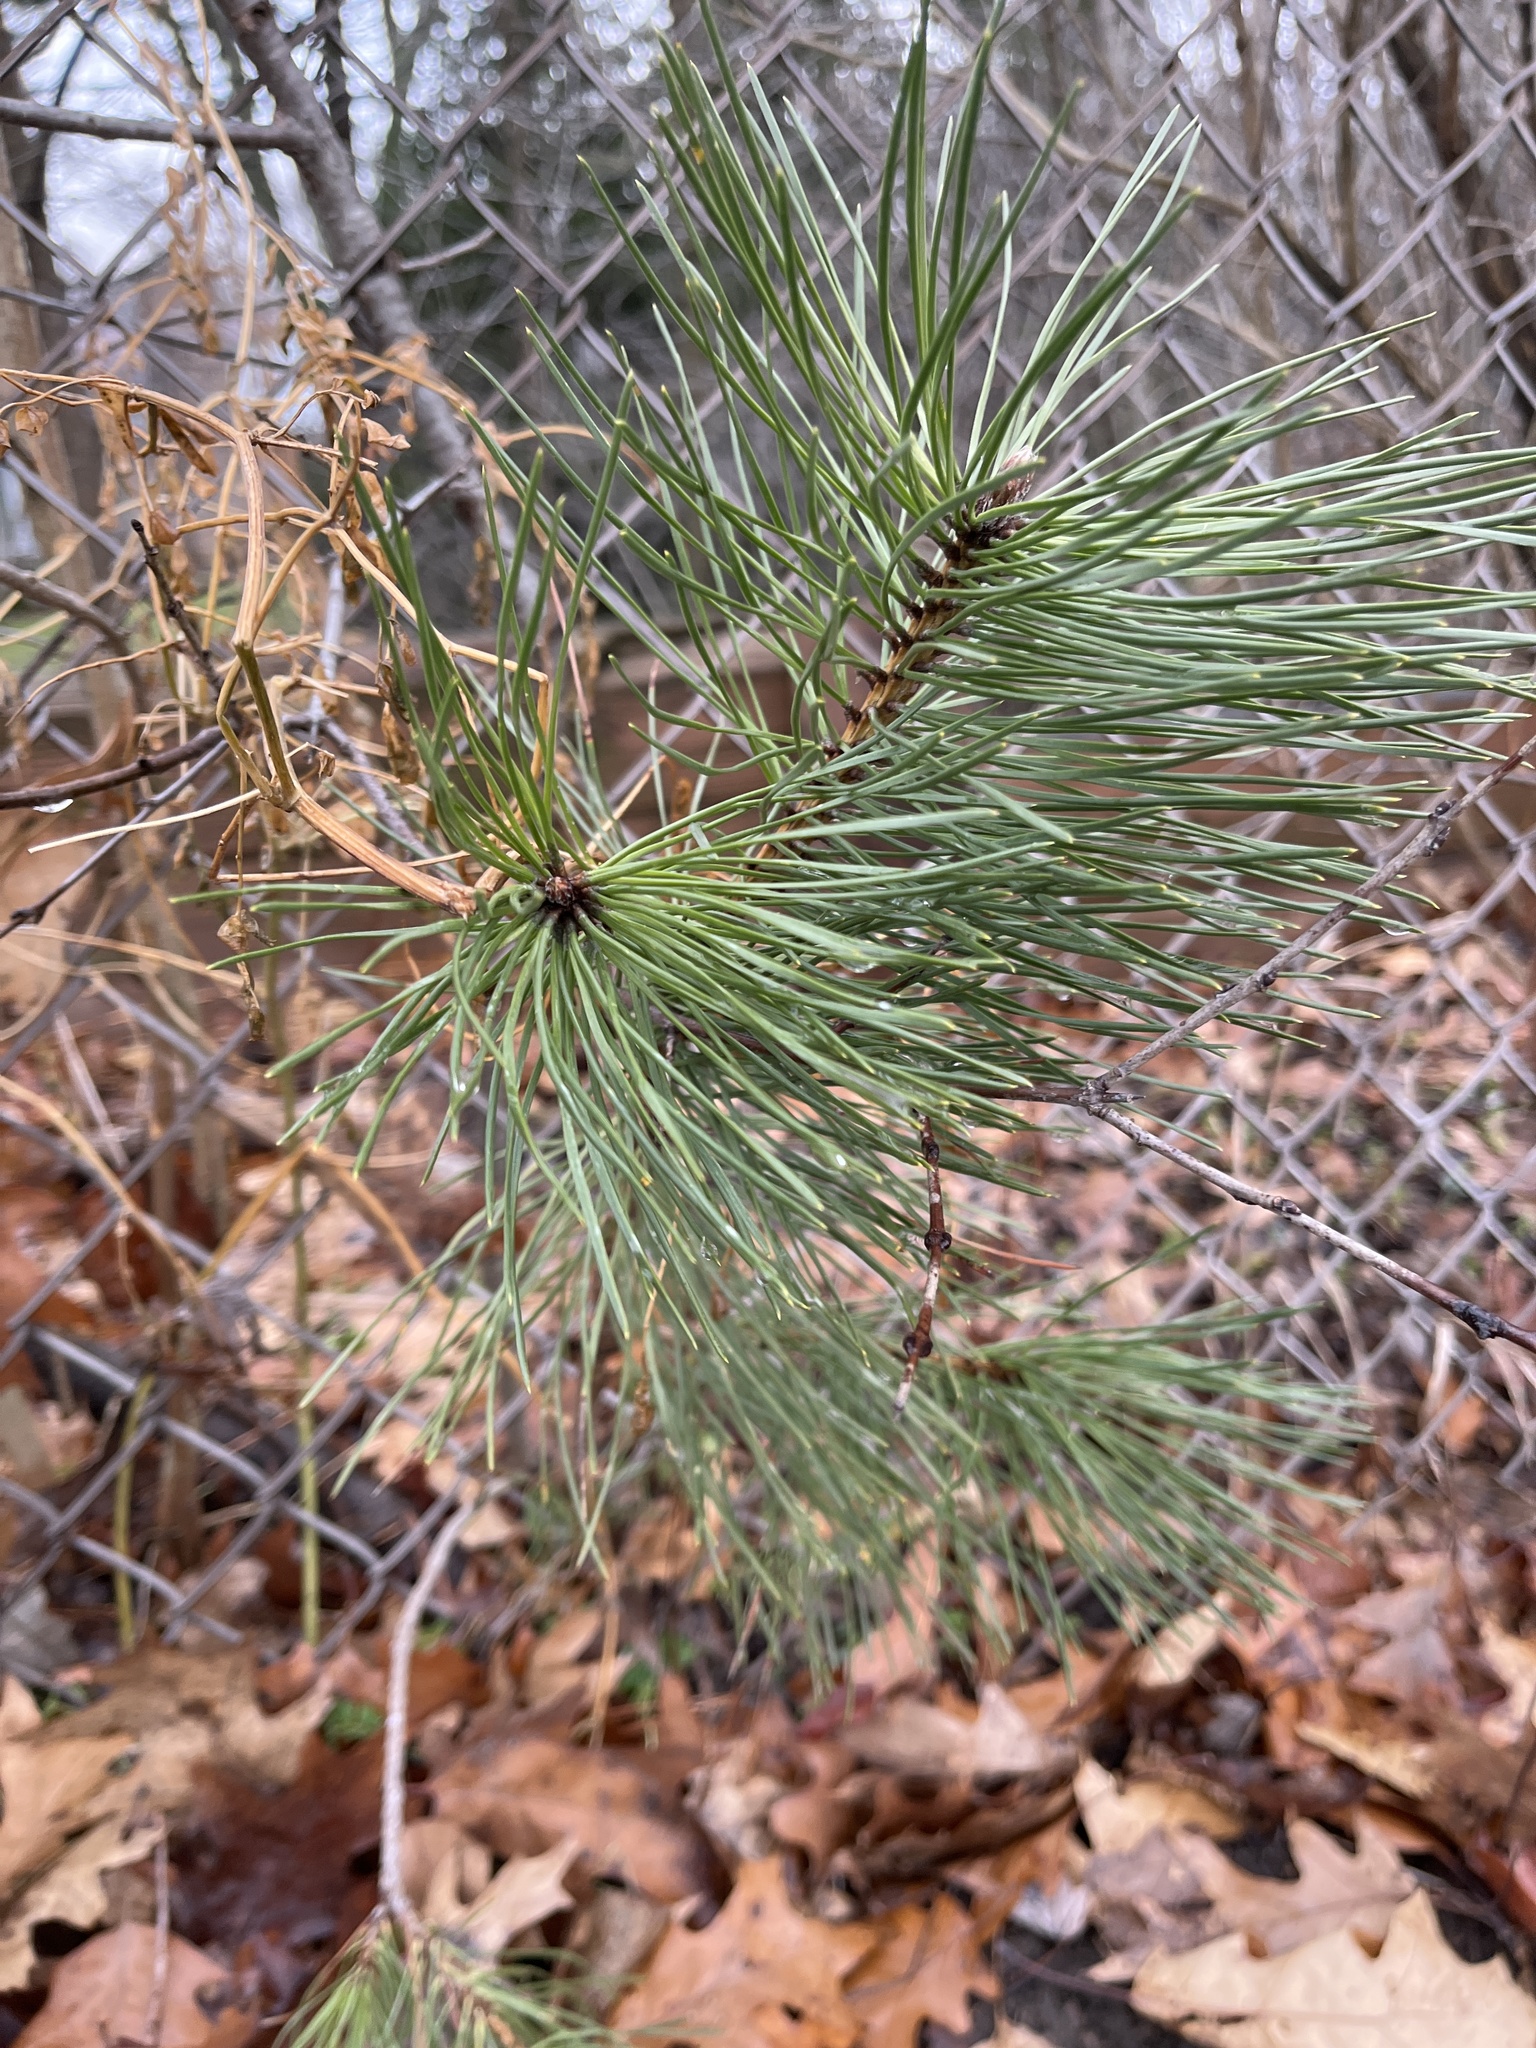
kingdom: Plantae
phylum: Tracheophyta
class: Pinopsida
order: Pinales
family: Pinaceae
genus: Pinus
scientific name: Pinus resinosa
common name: Norway pine
